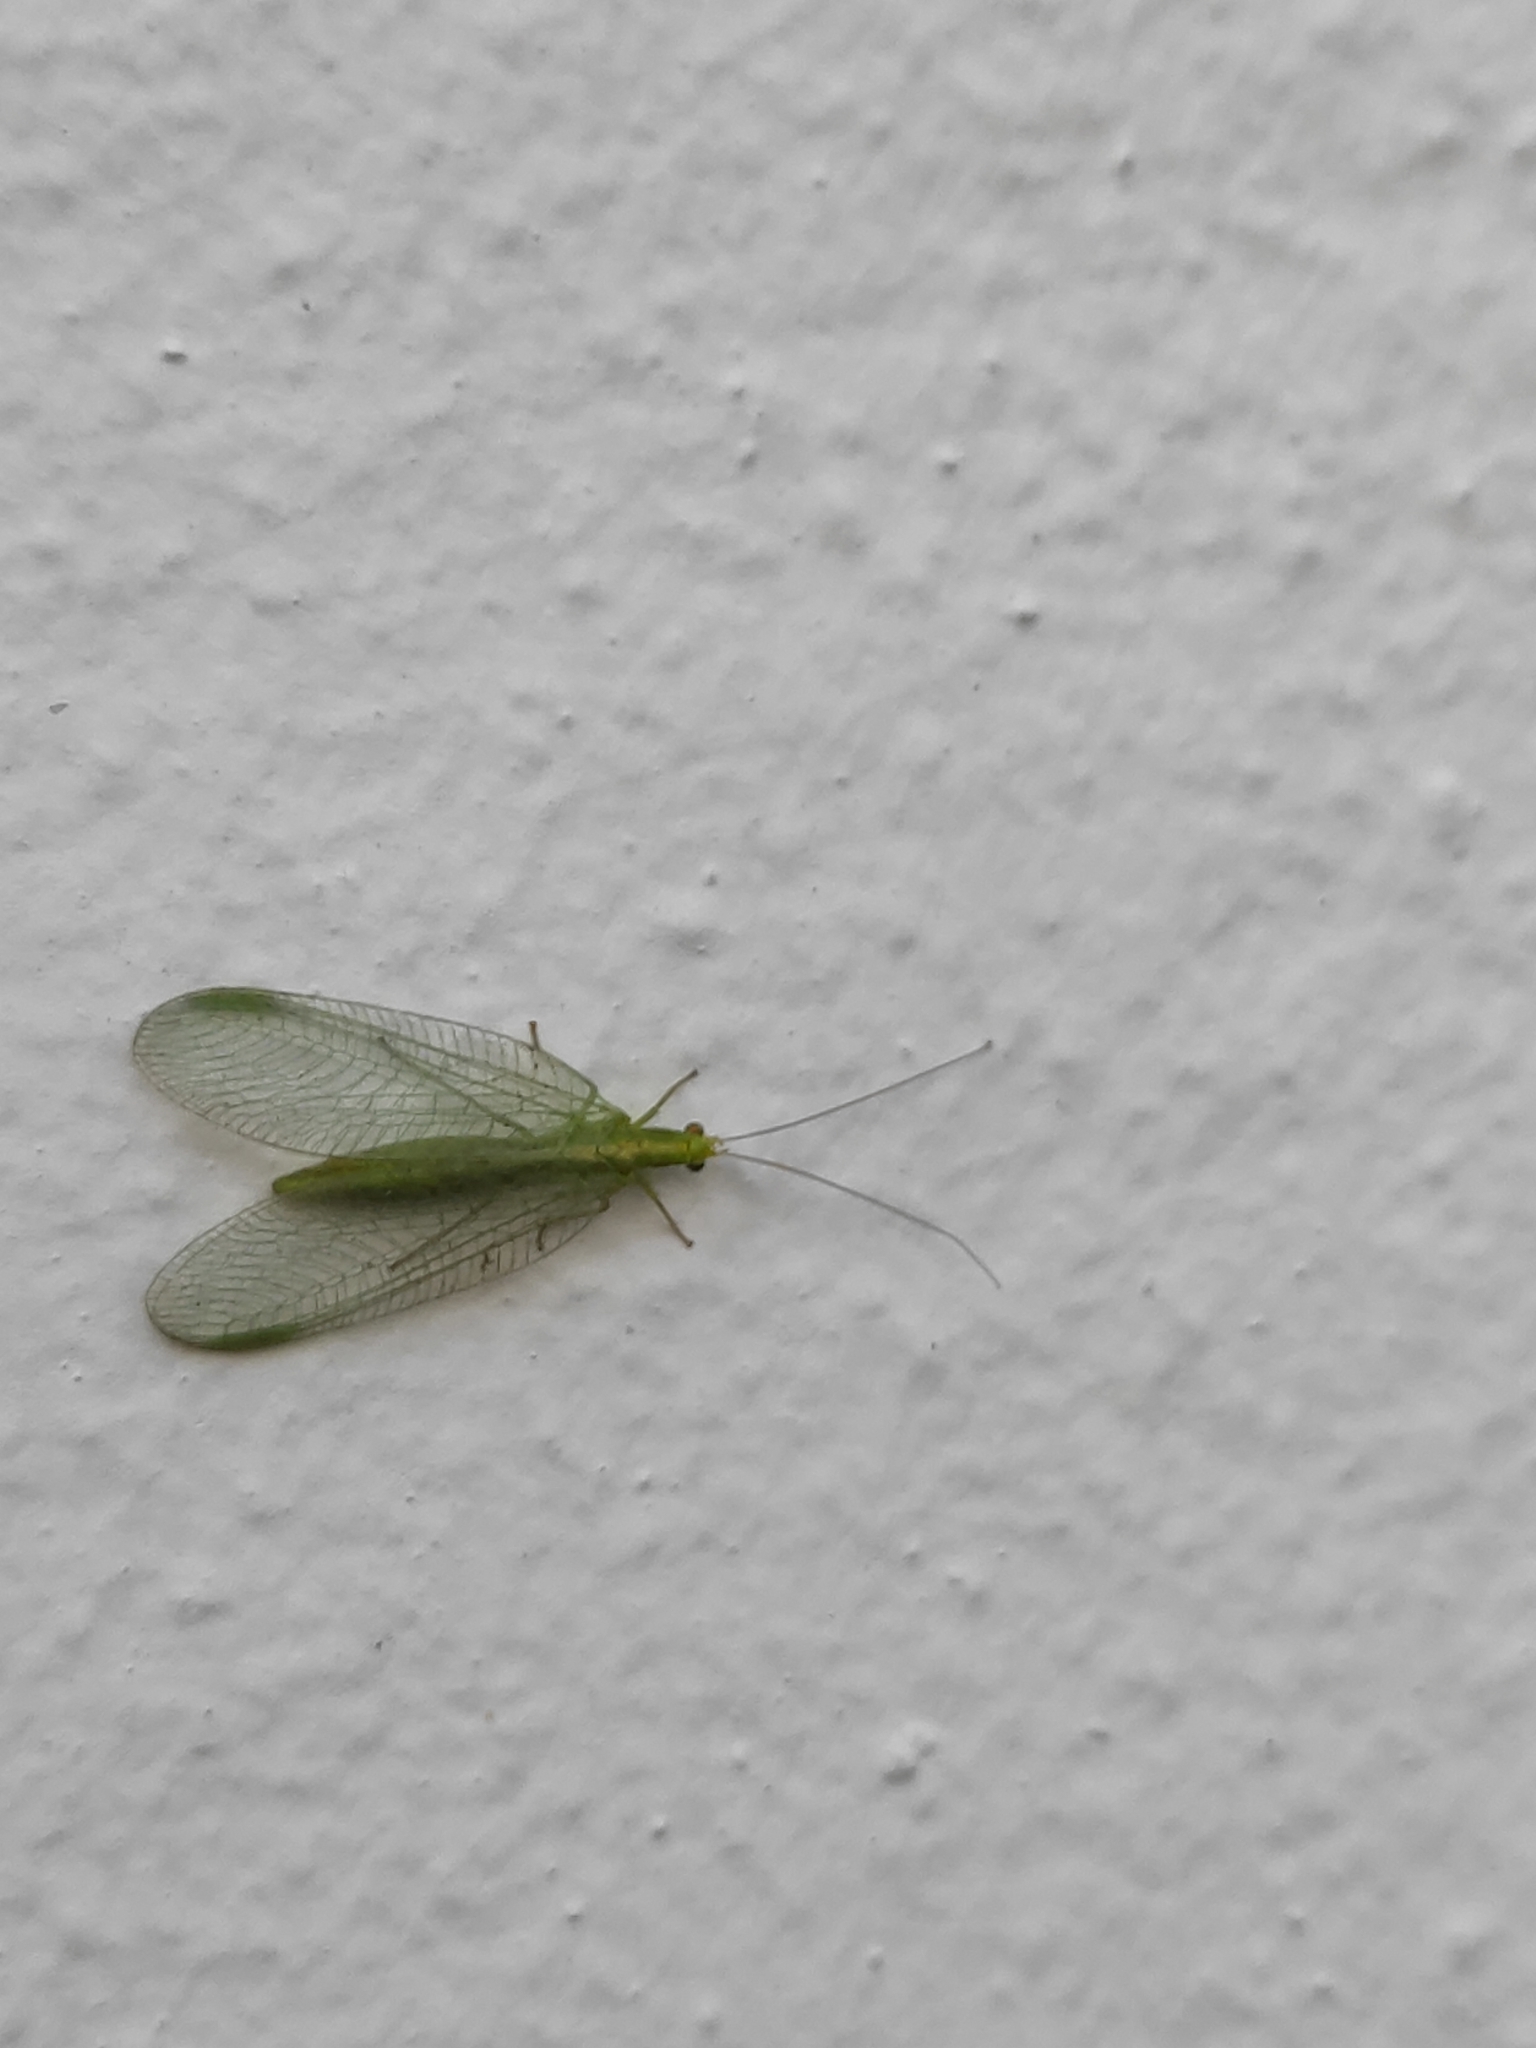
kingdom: Animalia
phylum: Arthropoda
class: Insecta
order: Neuroptera
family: Chrysopidae
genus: Chrysoperla
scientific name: Chrysoperla
